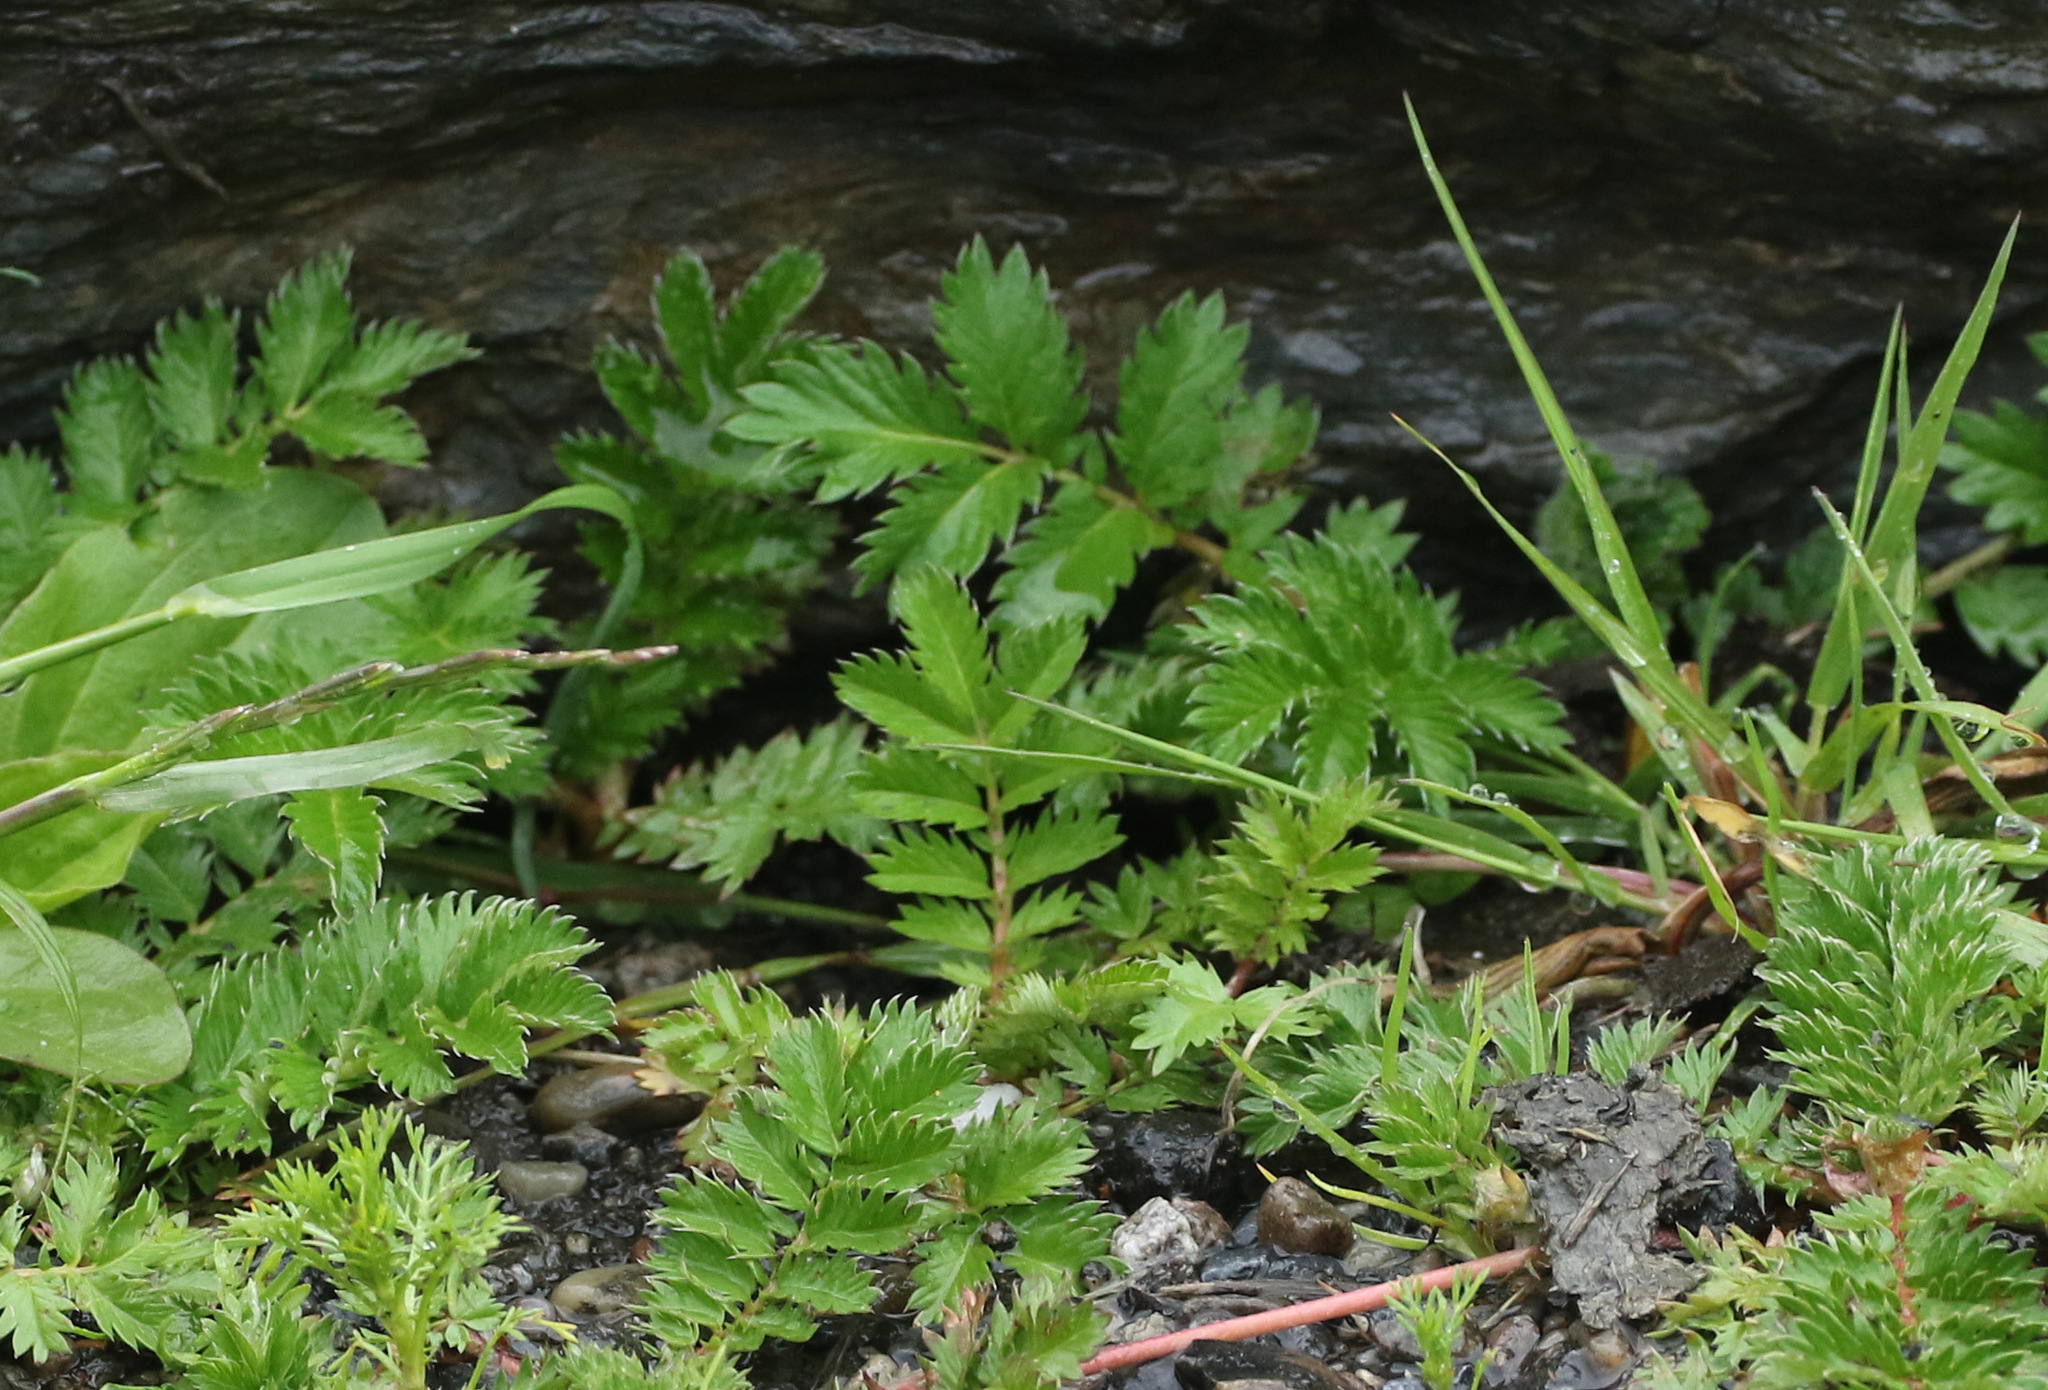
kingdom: Plantae
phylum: Tracheophyta
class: Magnoliopsida
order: Rosales
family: Rosaceae
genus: Argentina
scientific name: Argentina anserina
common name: Common silverweed
